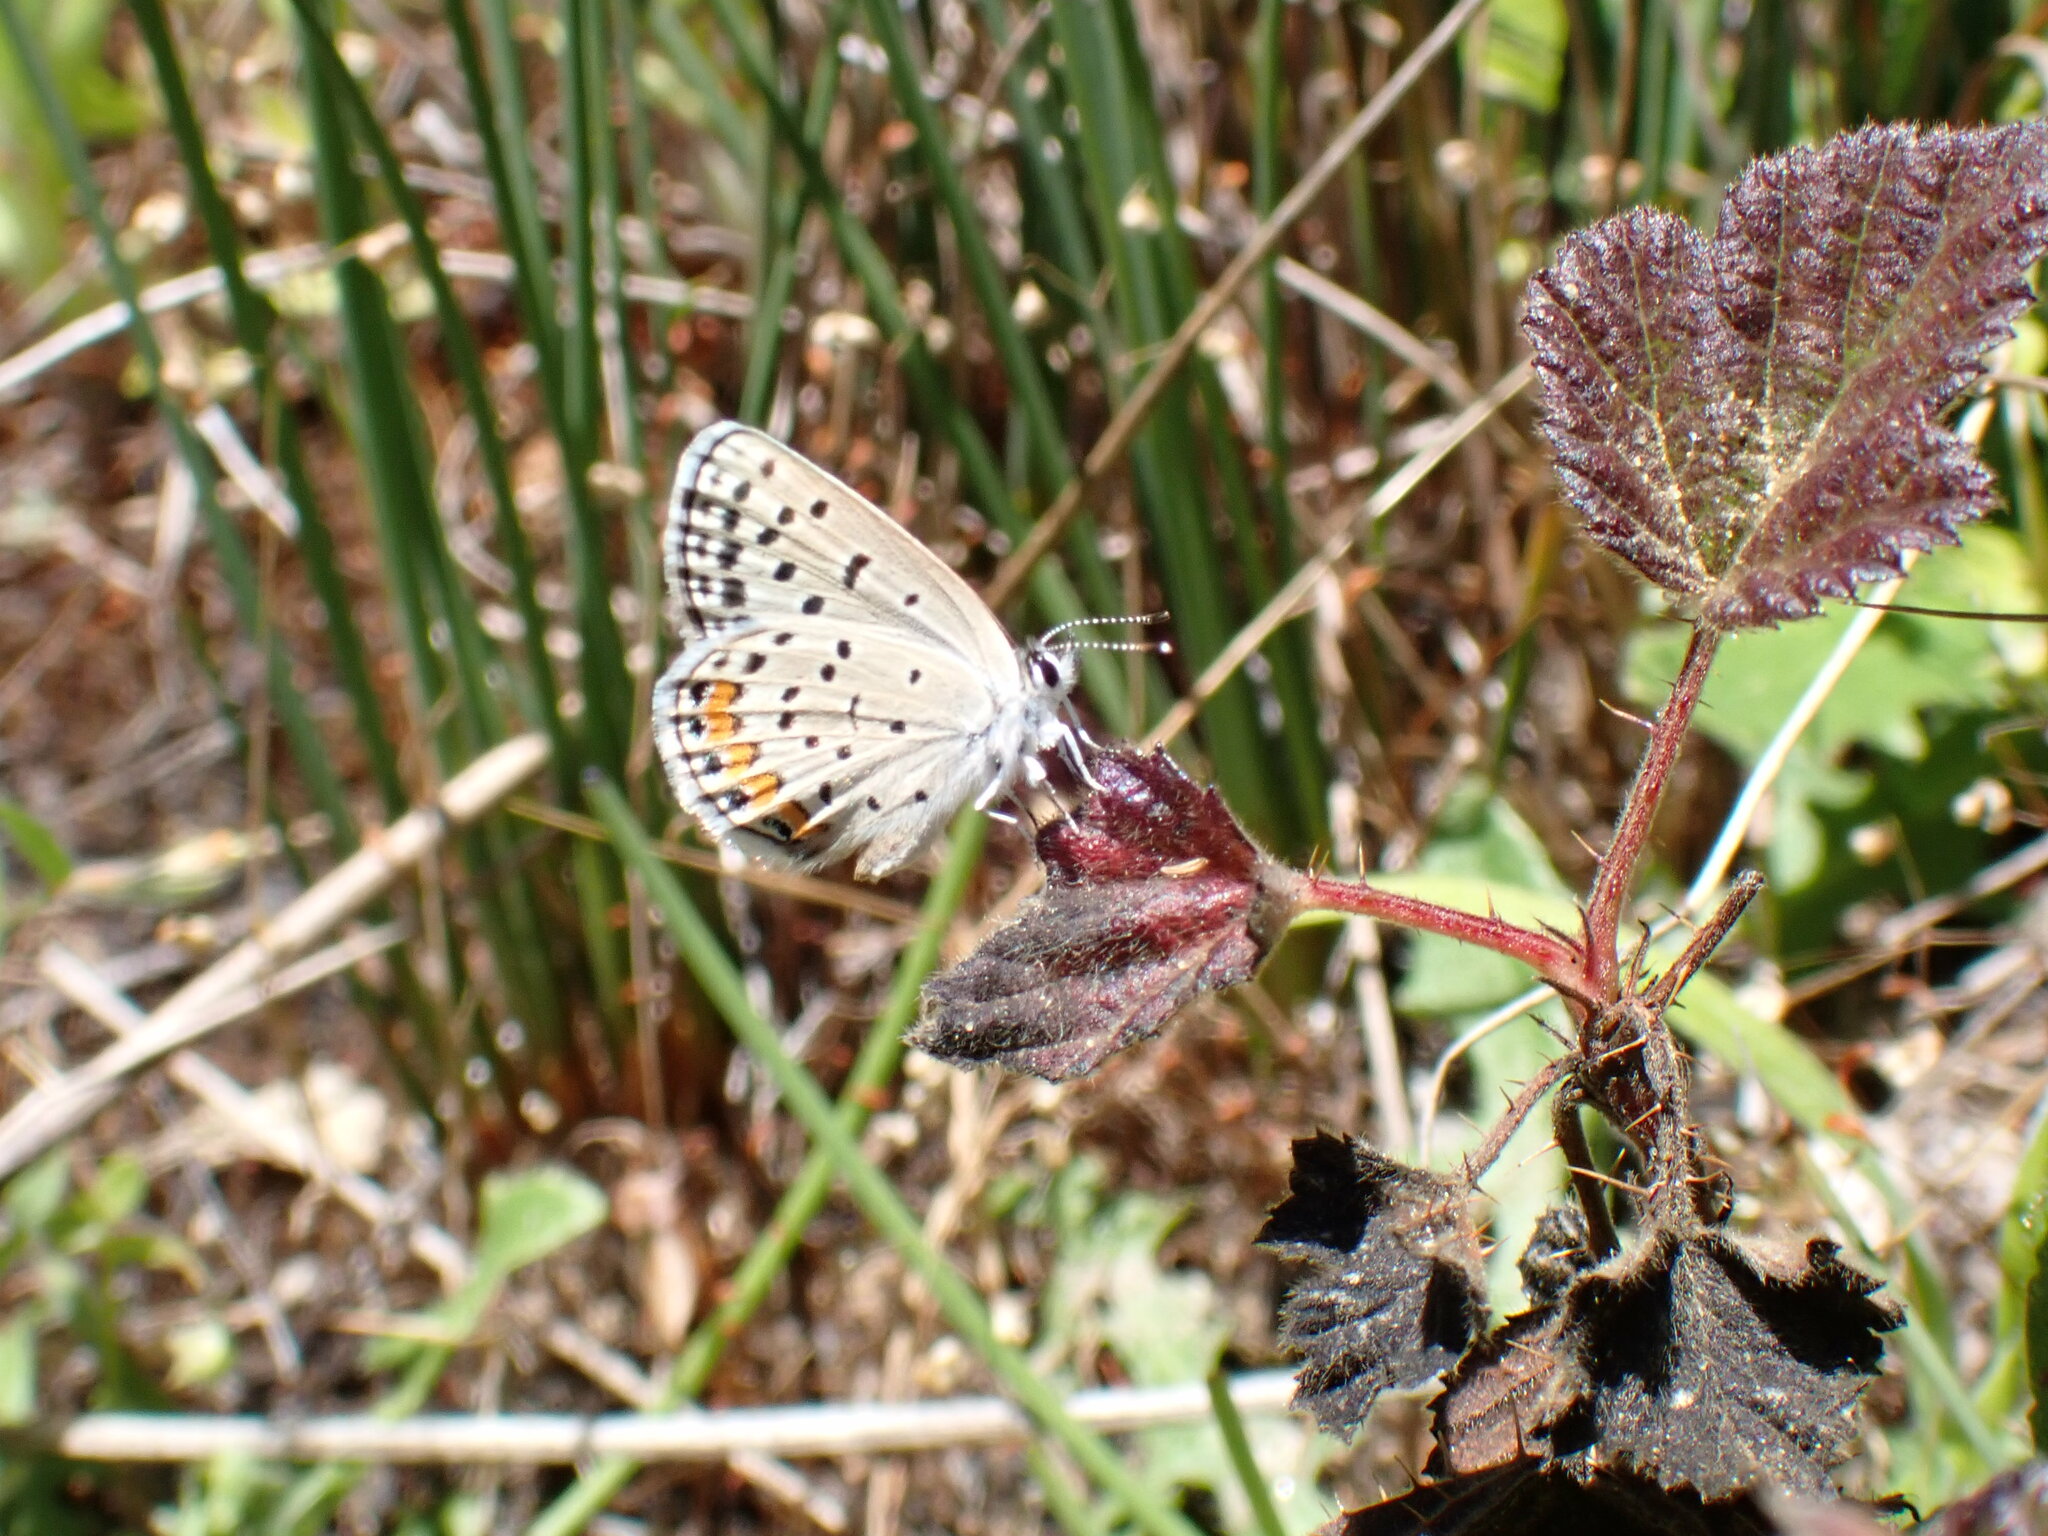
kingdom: Animalia
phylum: Arthropoda
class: Insecta
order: Lepidoptera
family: Lycaenidae
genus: Icaricia
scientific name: Icaricia acmon
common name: Acmon blue
